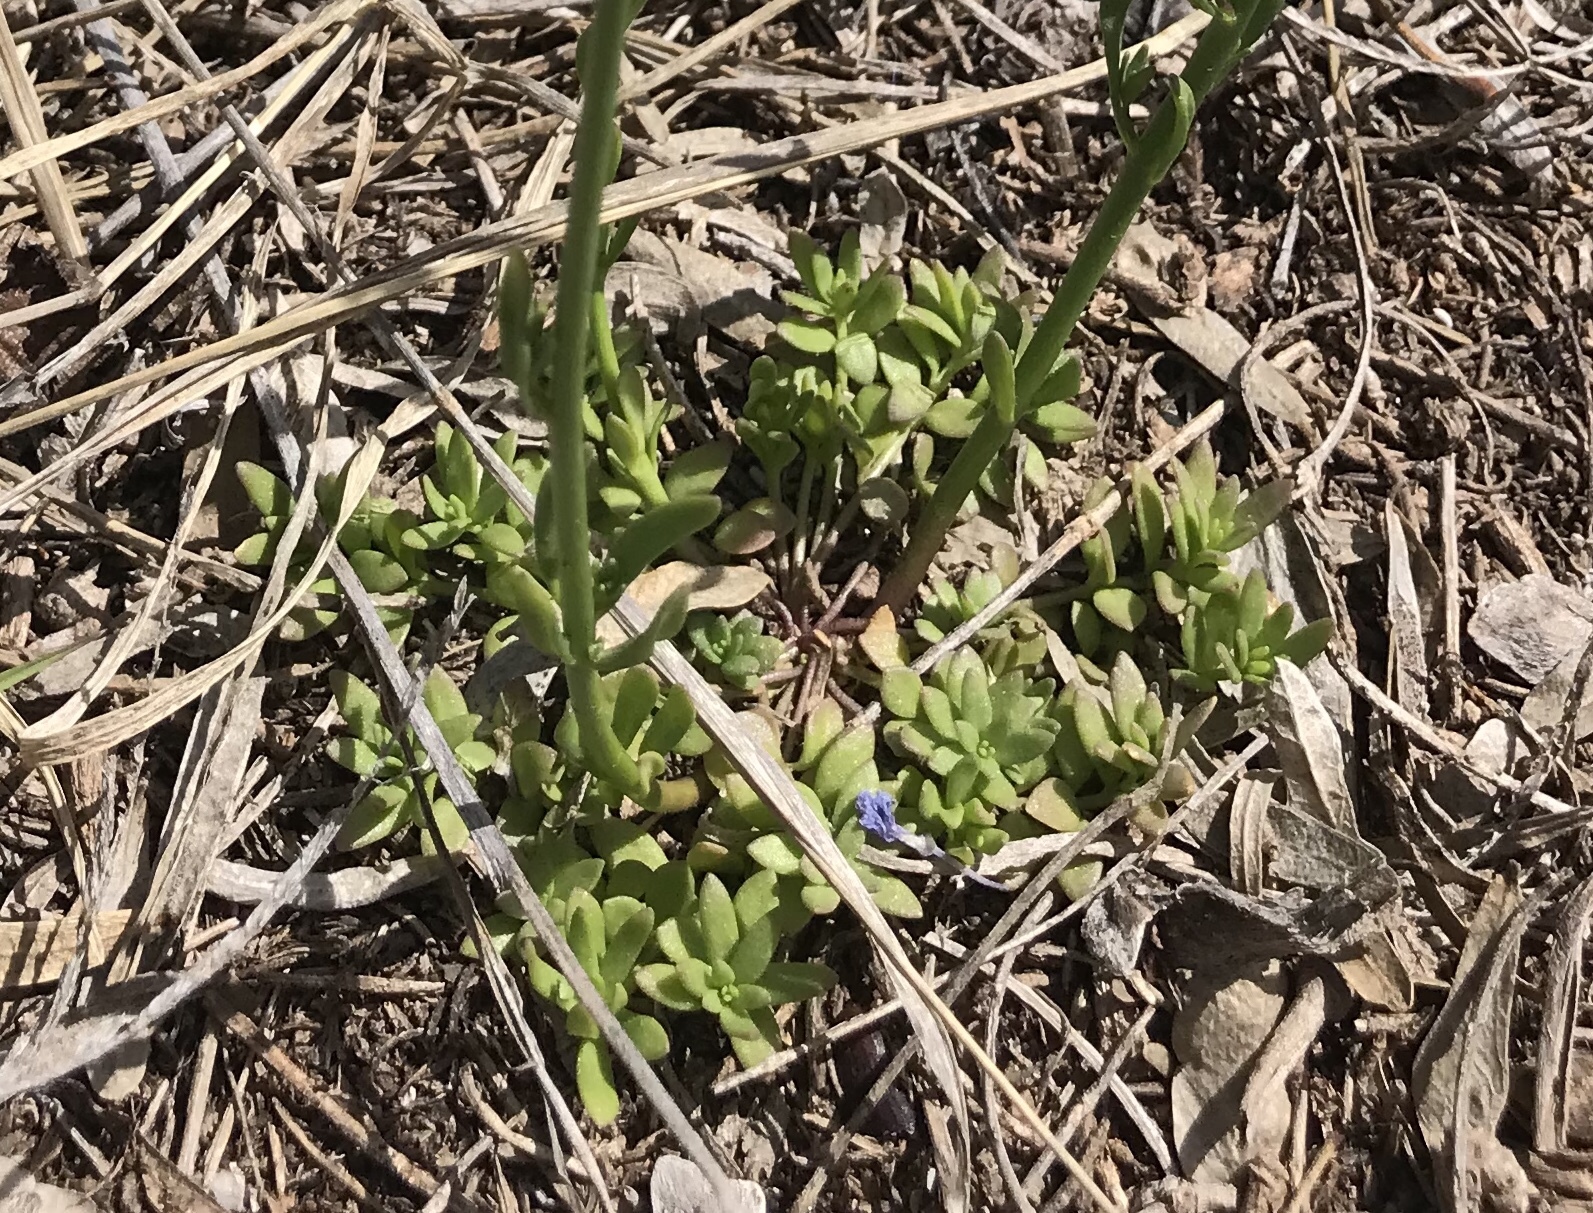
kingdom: Plantae
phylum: Tracheophyta
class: Magnoliopsida
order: Lamiales
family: Plantaginaceae
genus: Nuttallanthus
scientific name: Nuttallanthus texanus
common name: Texas toadflax
